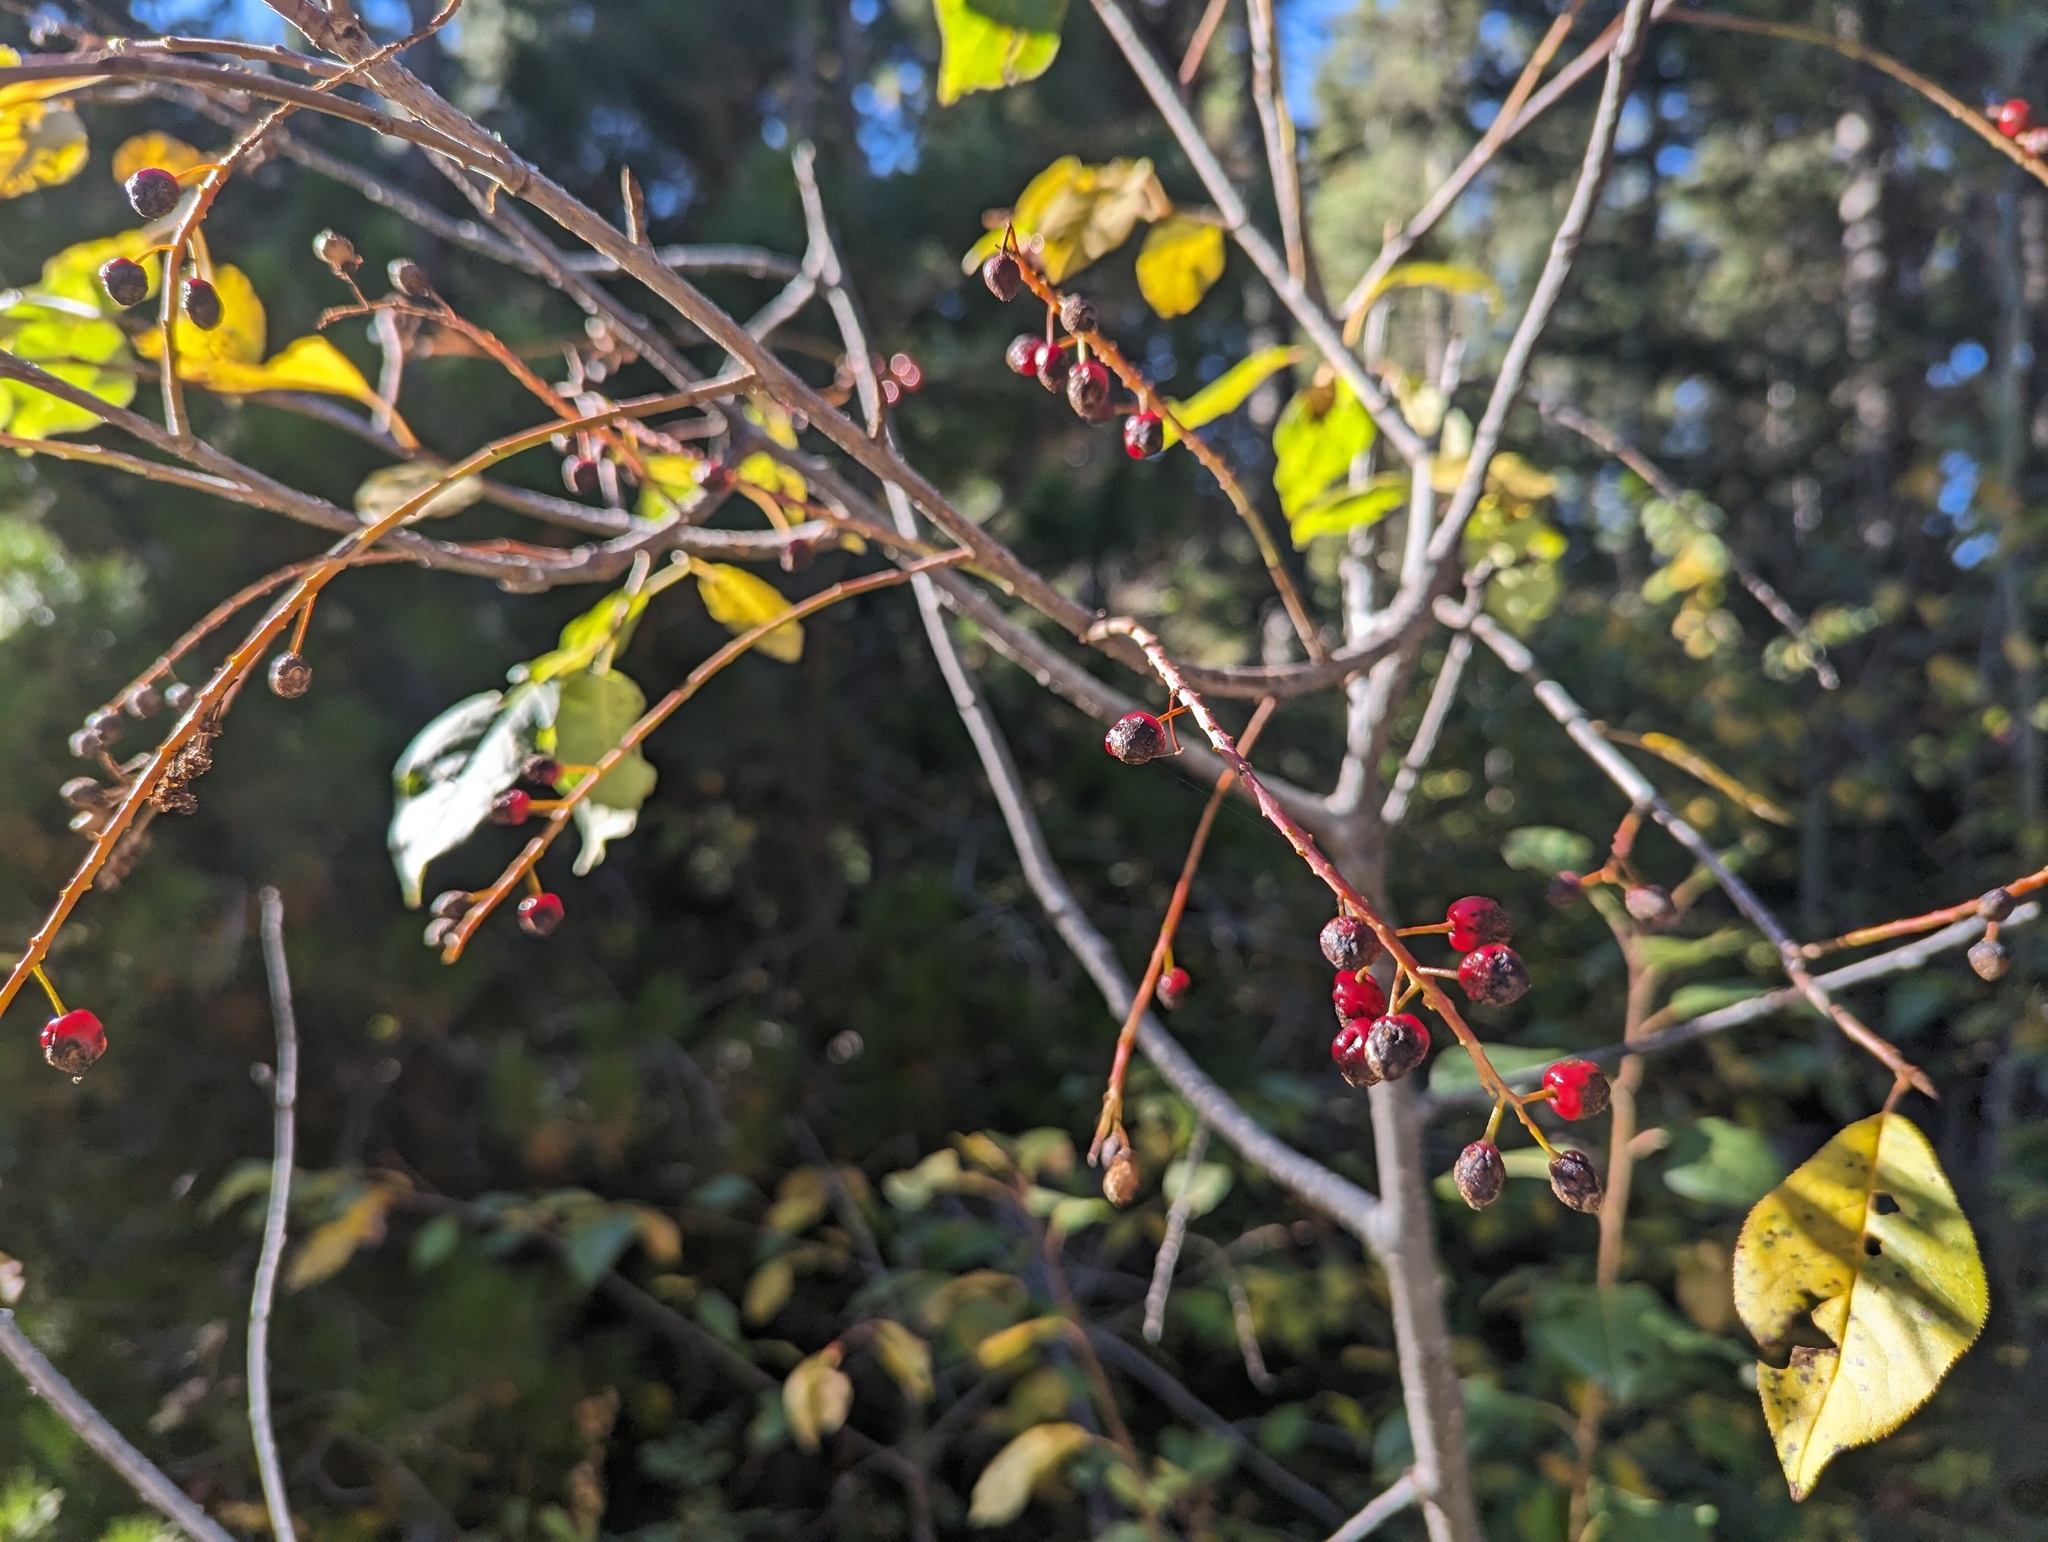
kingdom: Plantae
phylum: Tracheophyta
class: Magnoliopsida
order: Rosales
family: Rosaceae
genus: Prunus
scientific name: Prunus virginiana
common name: Chokecherry
